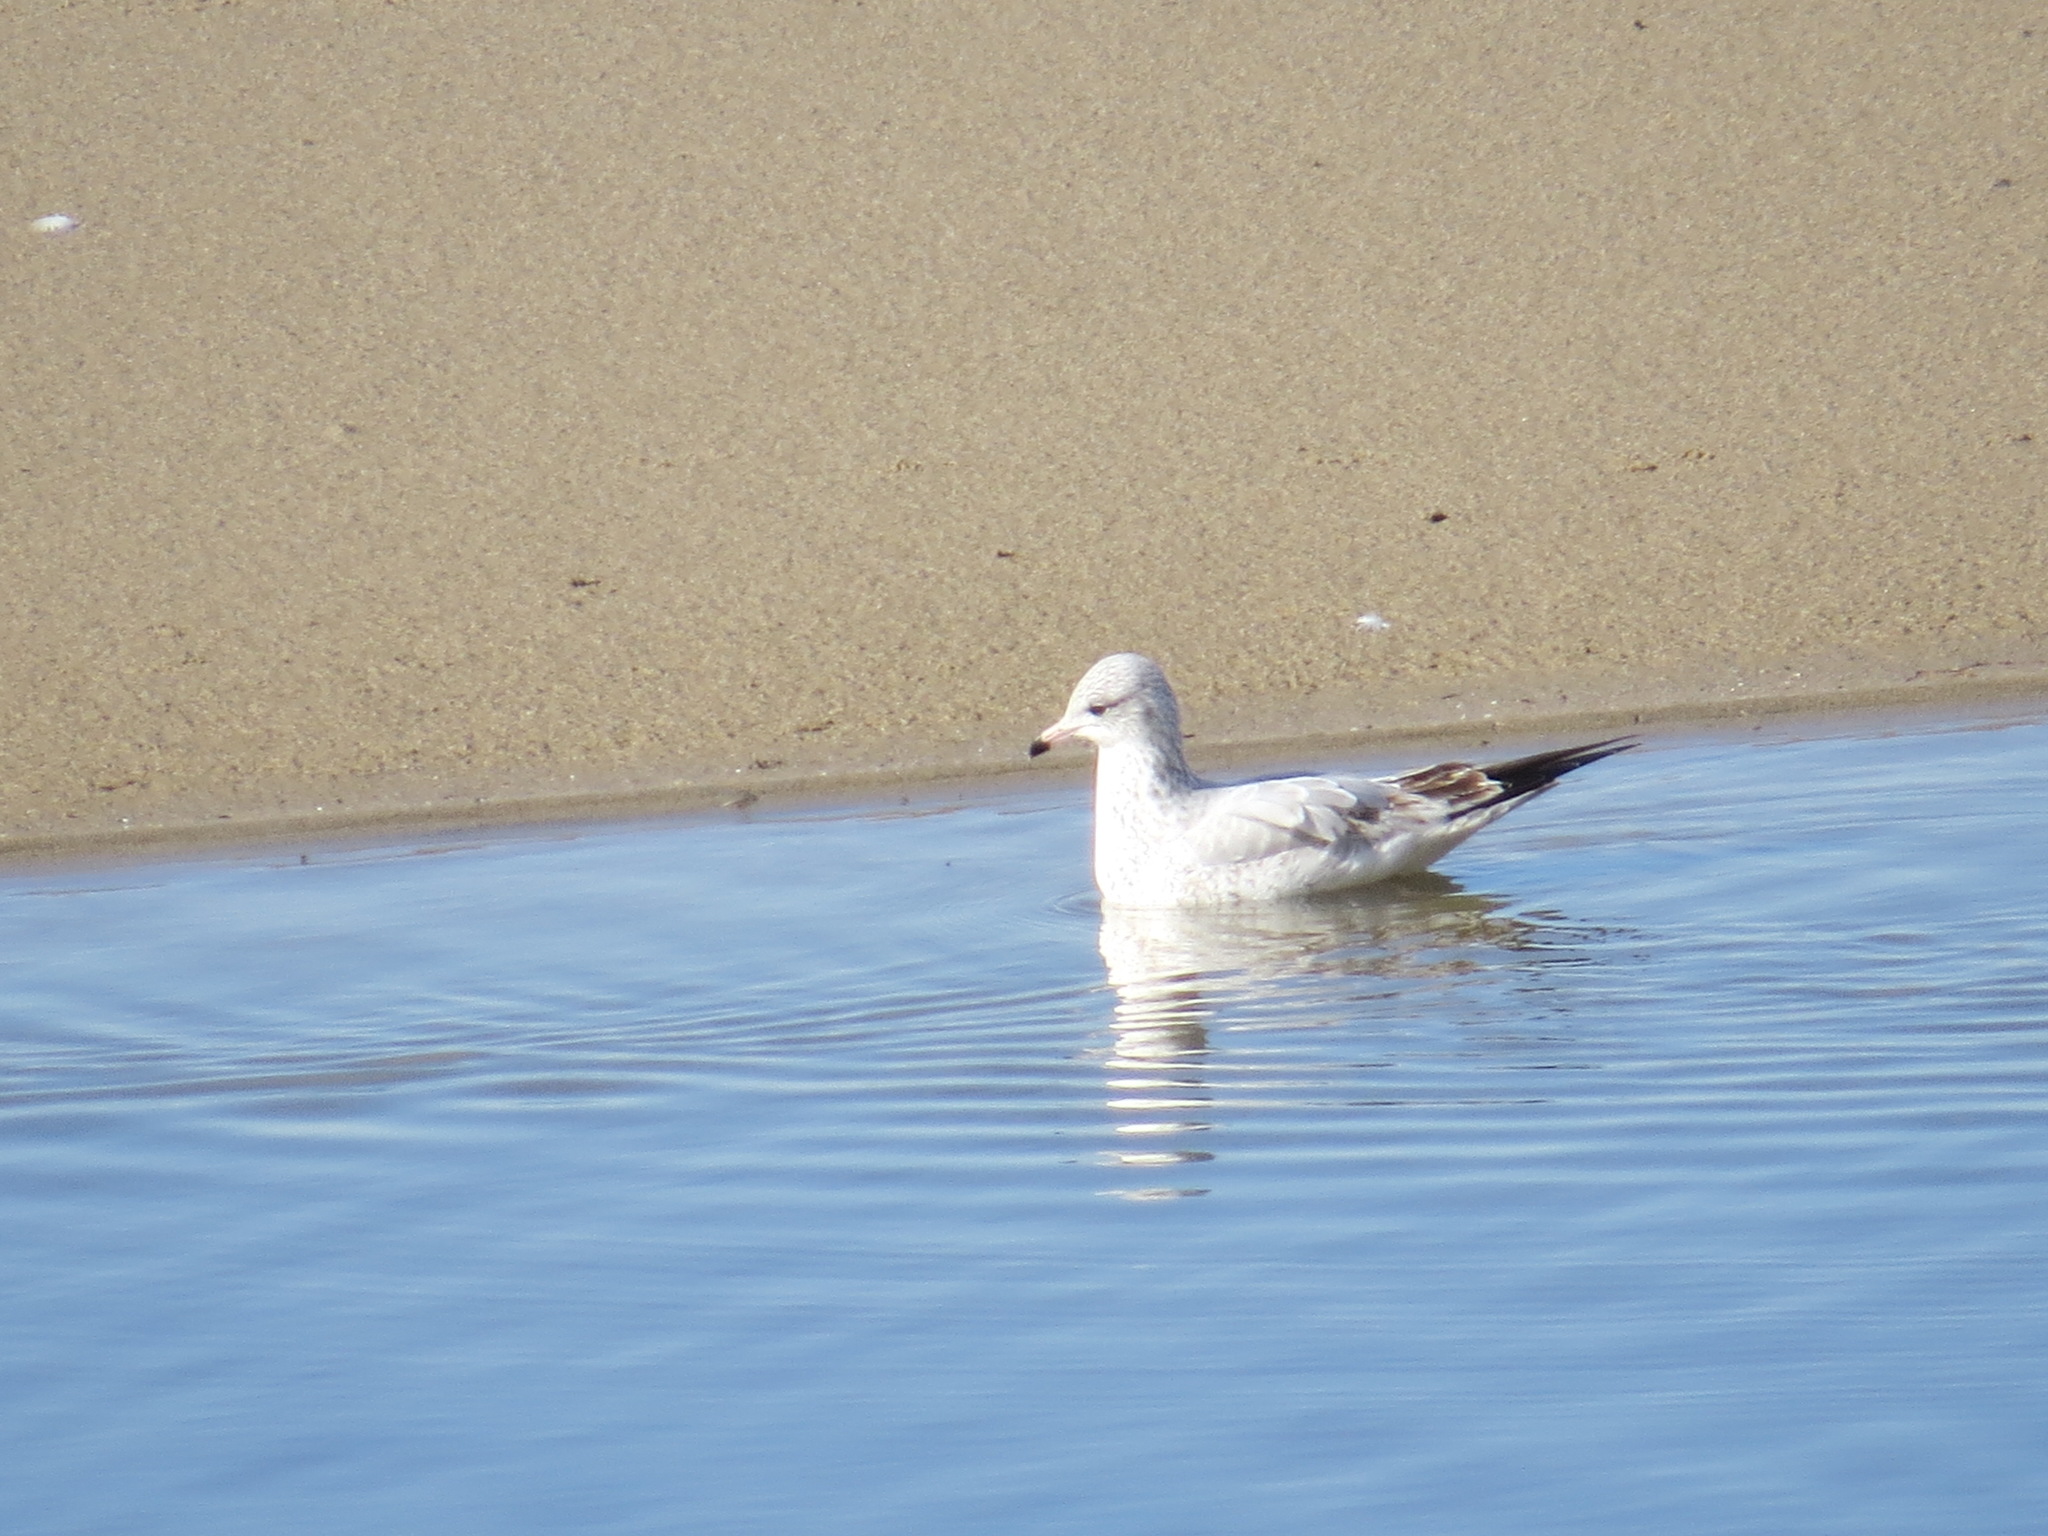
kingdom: Animalia
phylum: Chordata
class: Aves
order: Charadriiformes
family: Laridae
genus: Larus
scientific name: Larus delawarensis
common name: Ring-billed gull
